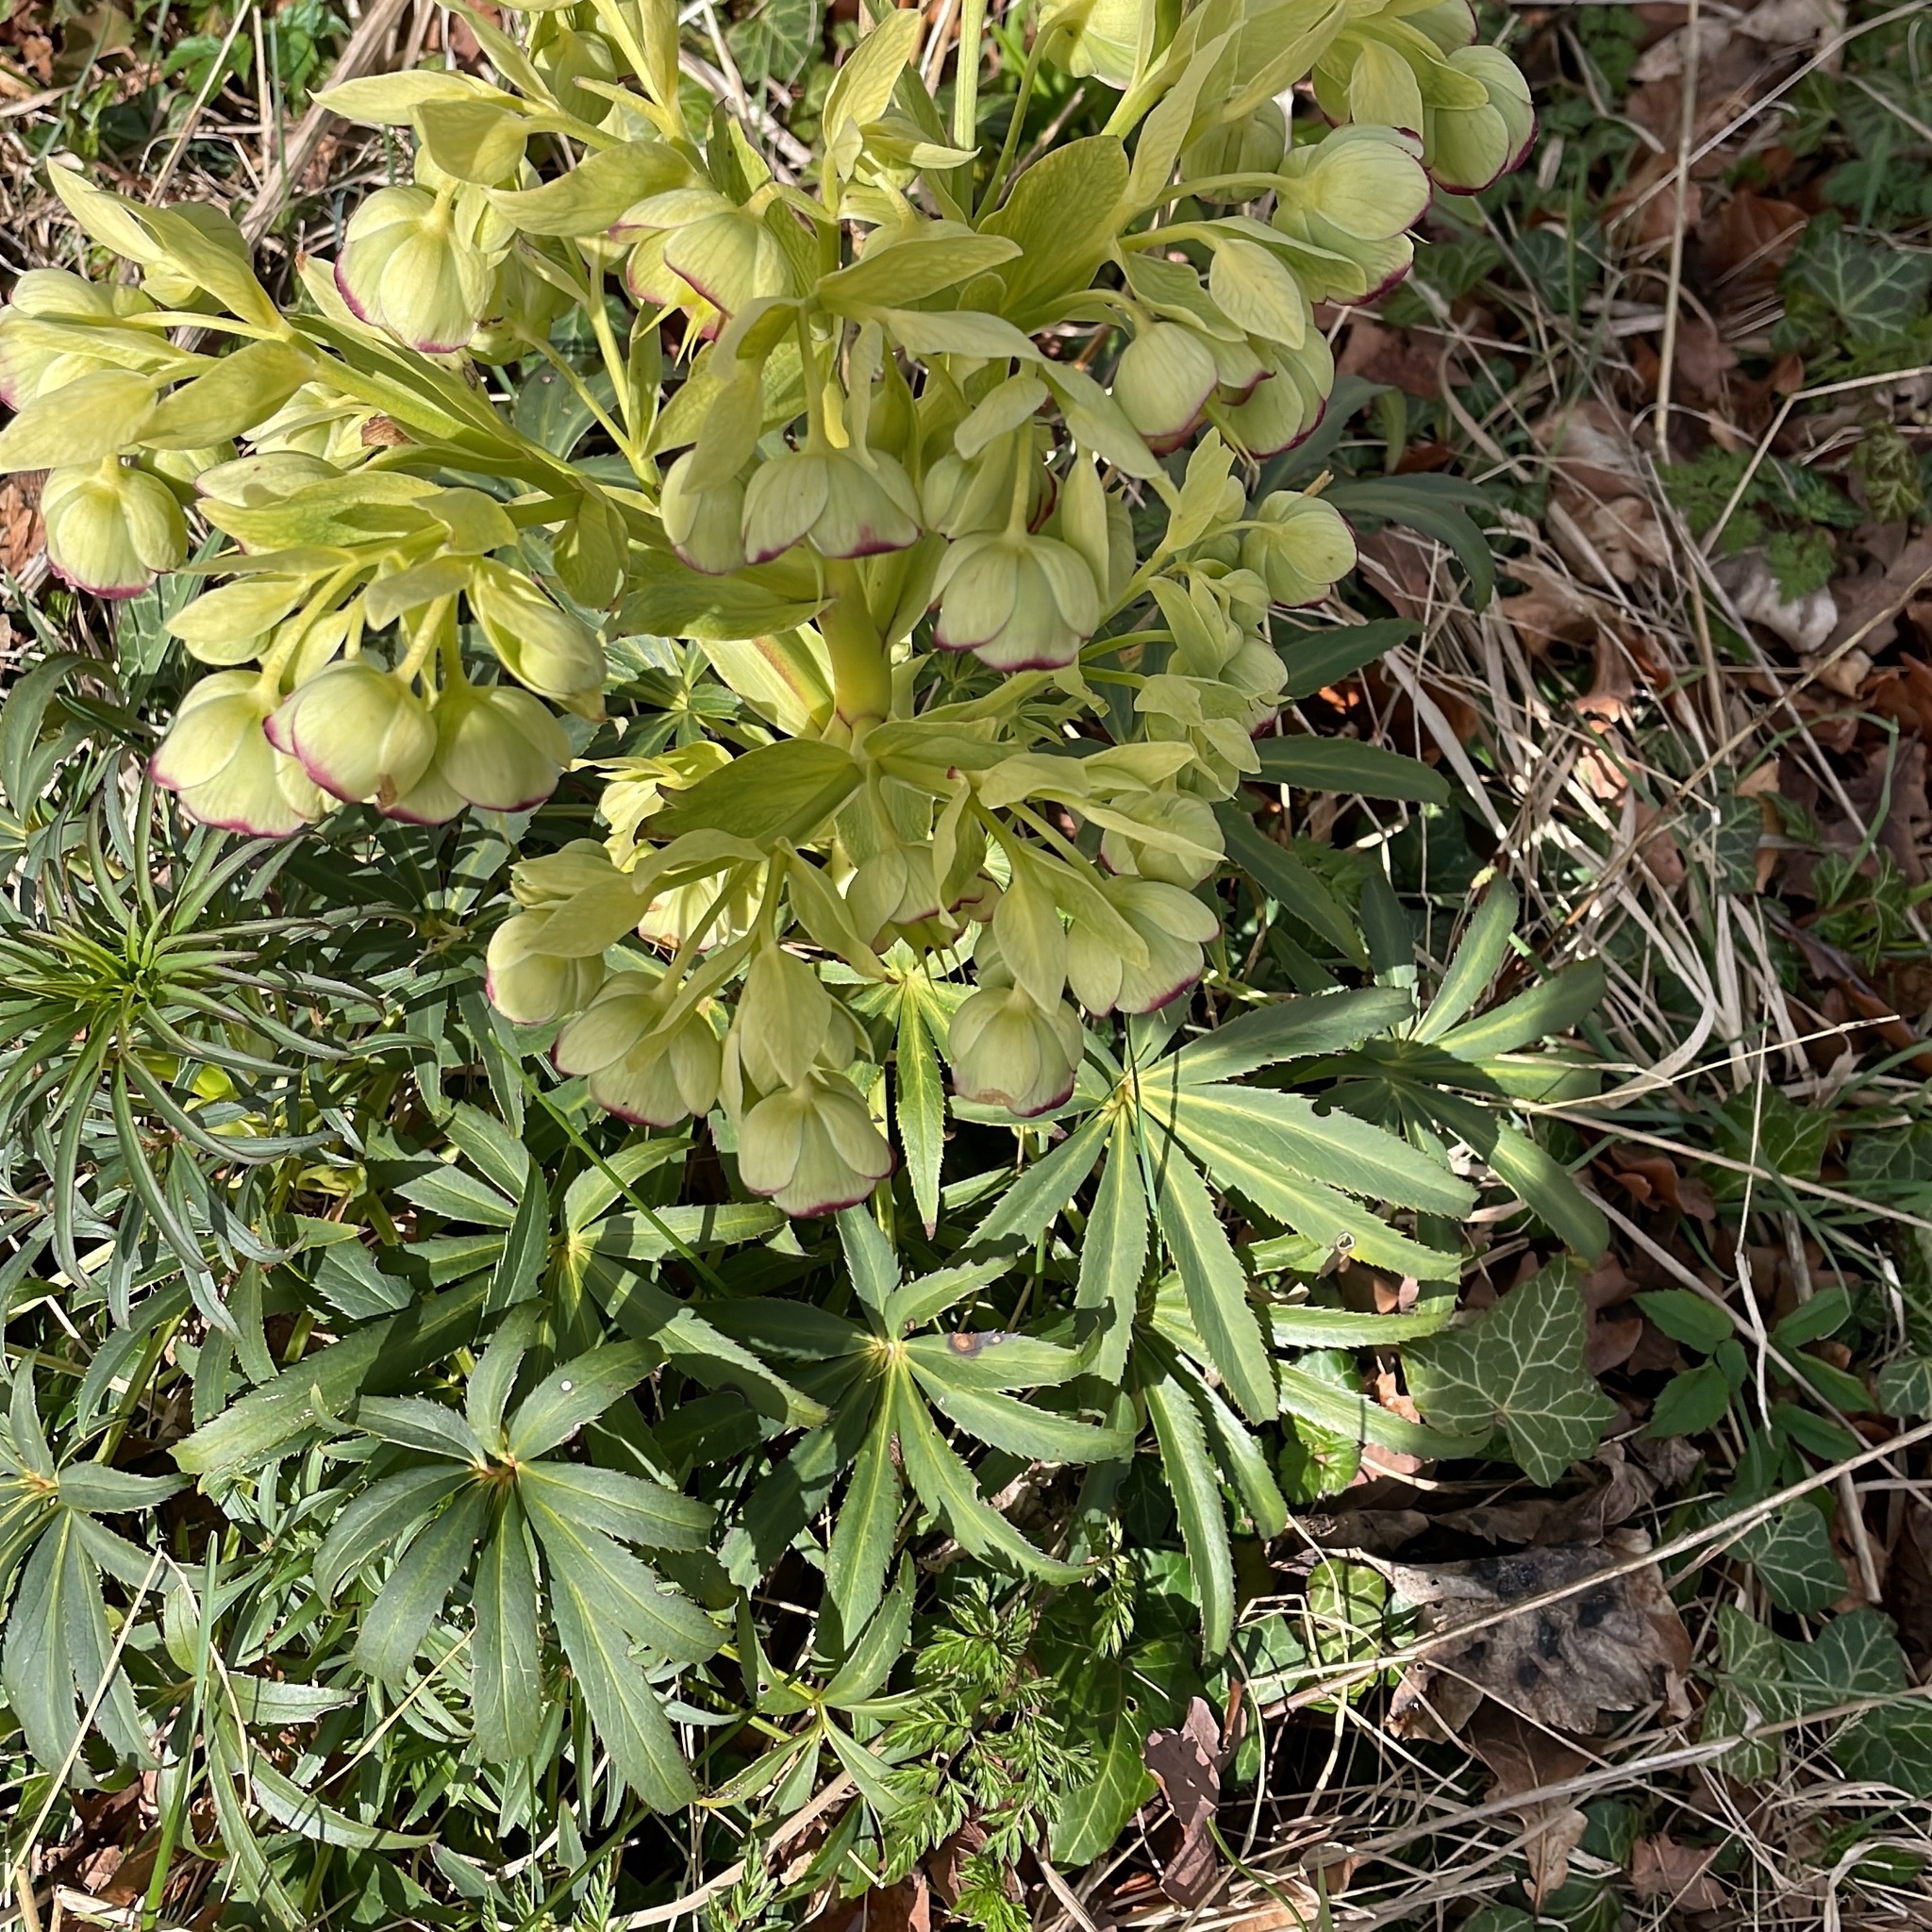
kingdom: Plantae
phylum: Tracheophyta
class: Magnoliopsida
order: Ranunculales
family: Ranunculaceae
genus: Helleborus
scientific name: Helleborus foetidus
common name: Stinking hellebore
